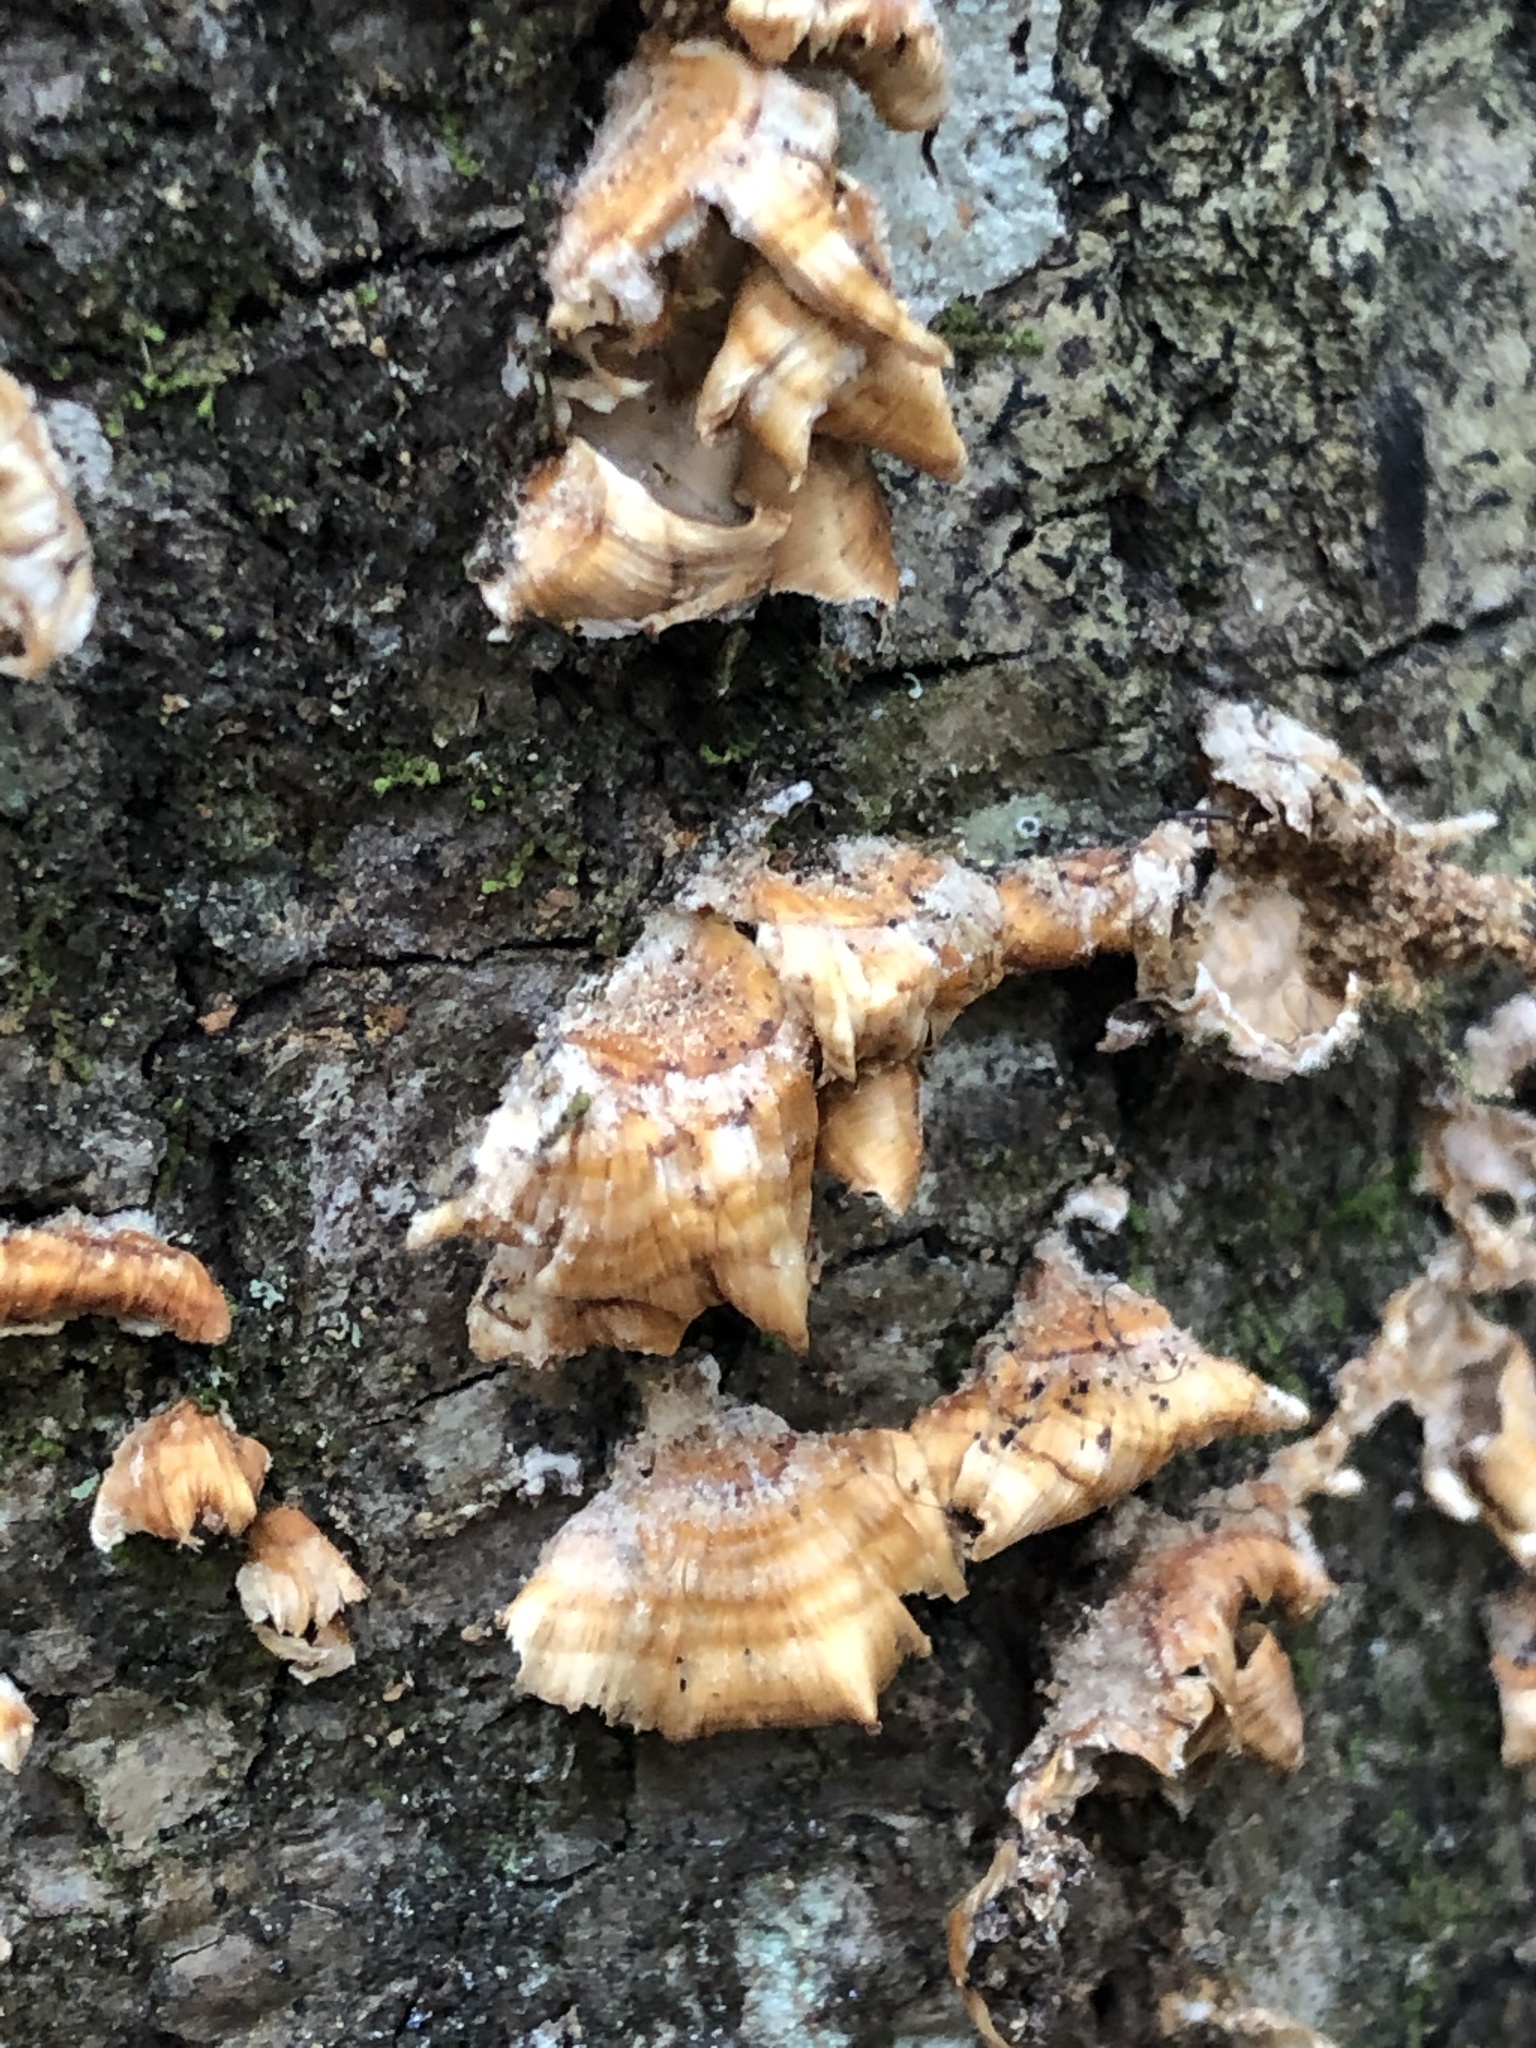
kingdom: Fungi
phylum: Basidiomycota
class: Agaricomycetes
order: Russulales
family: Stereaceae
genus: Stereum
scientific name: Stereum complicatum
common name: Crowded parchment
